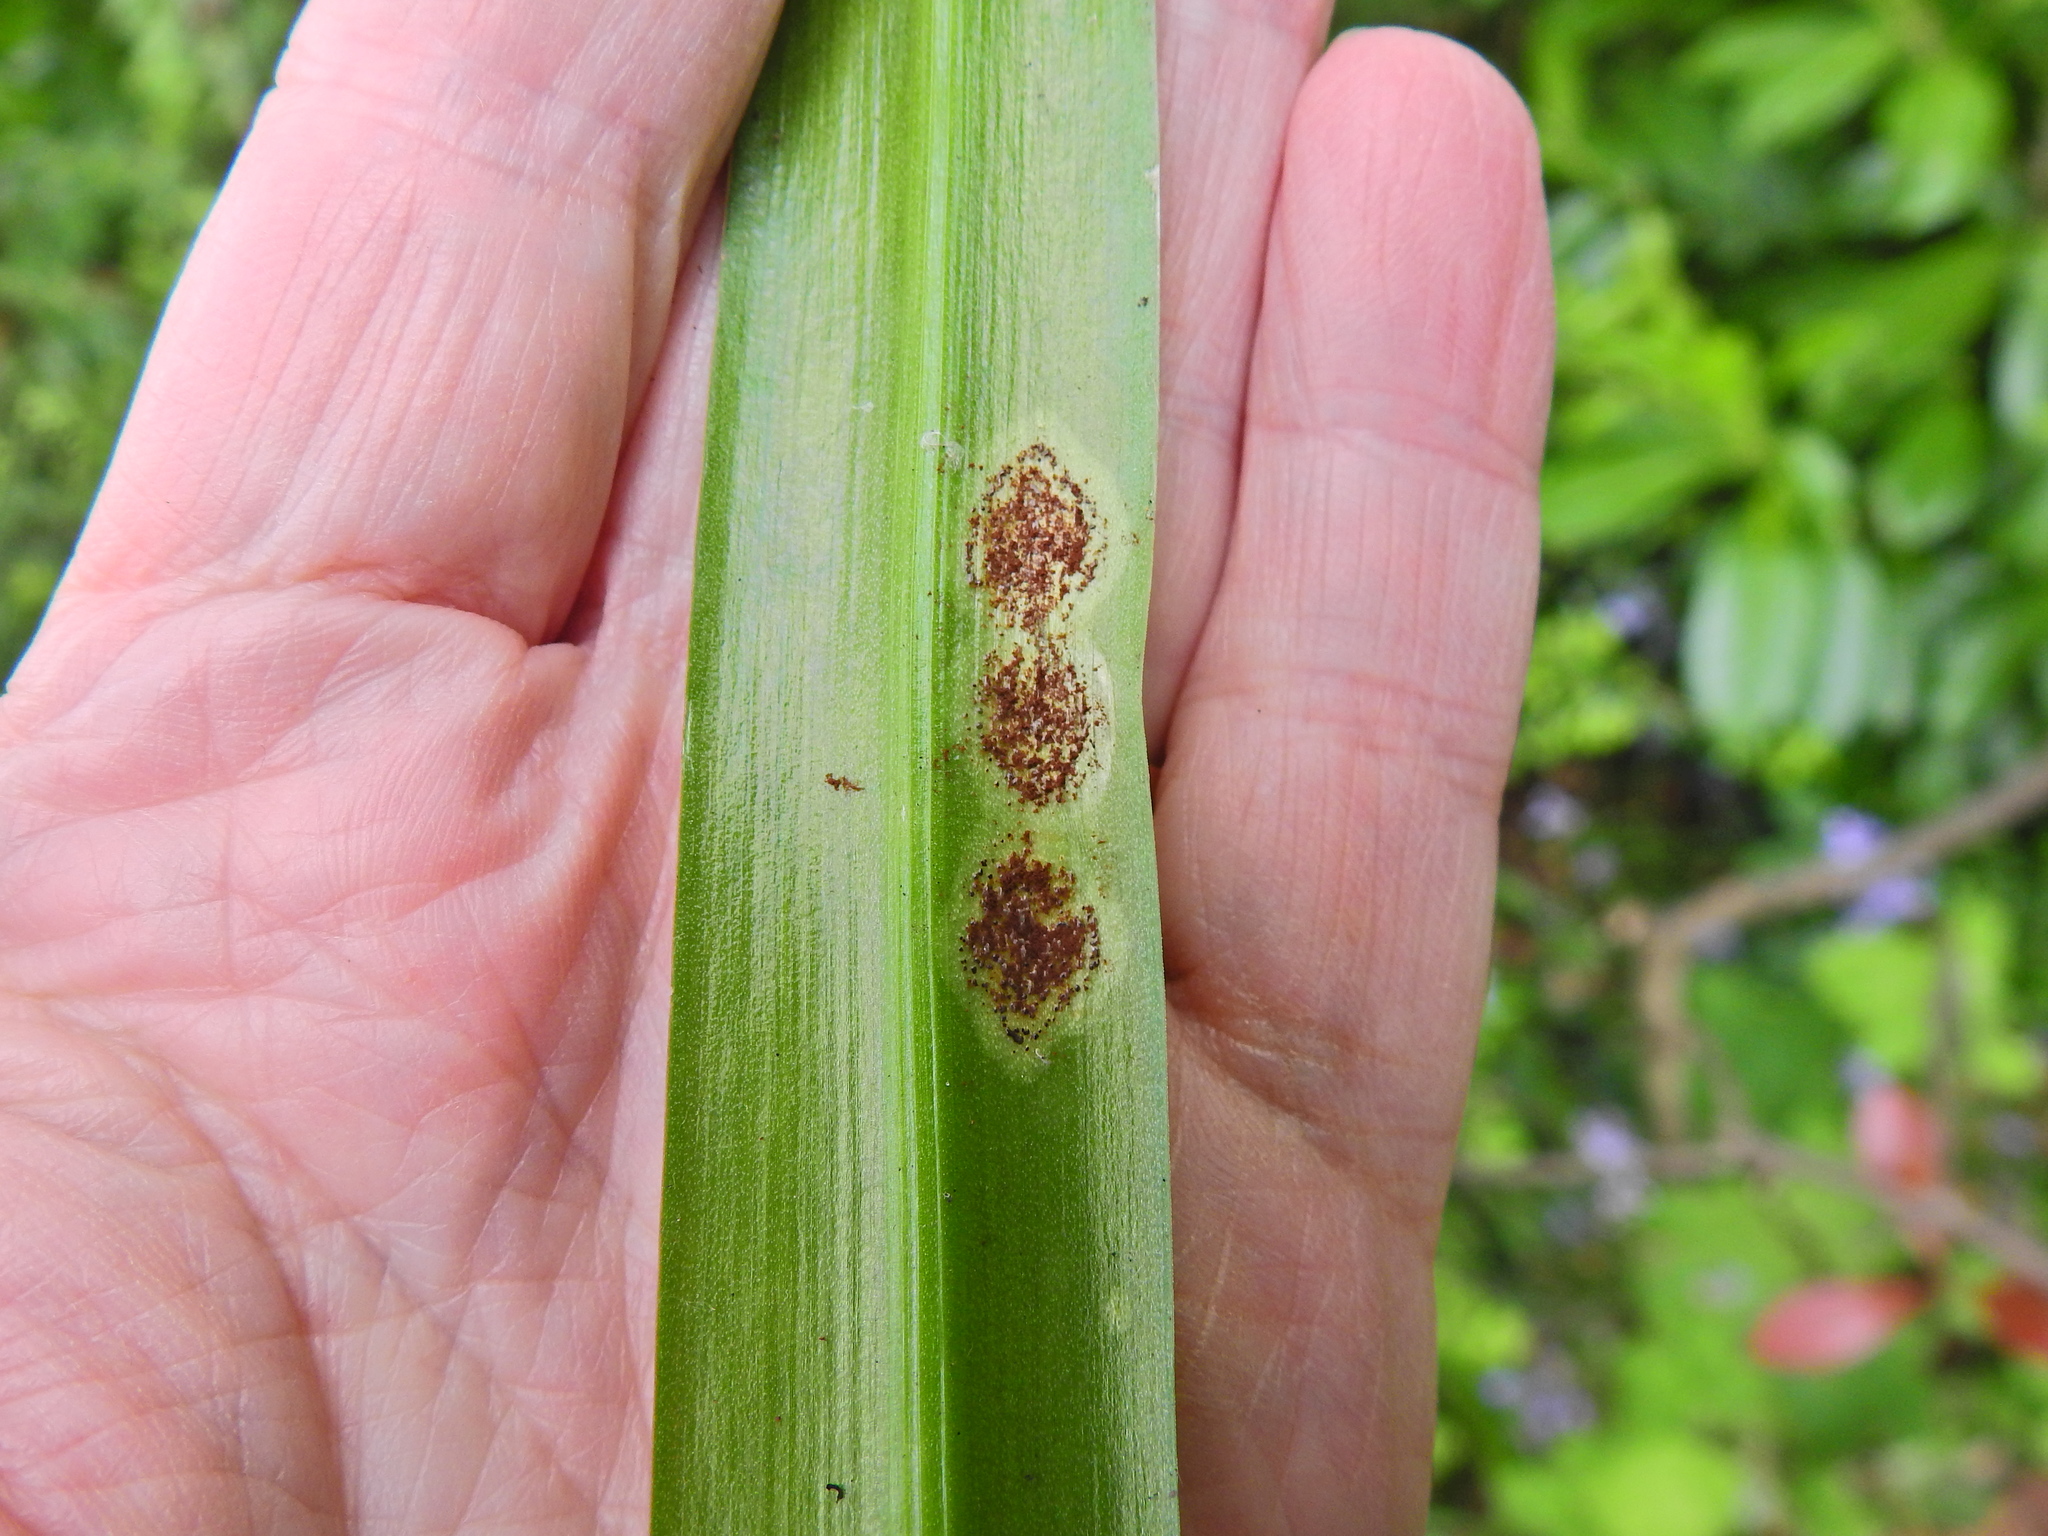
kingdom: Fungi
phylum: Basidiomycota
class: Pucciniomycetes
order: Pucciniales
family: Pucciniaceae
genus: Uromyces
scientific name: Uromyces hyacinthi
